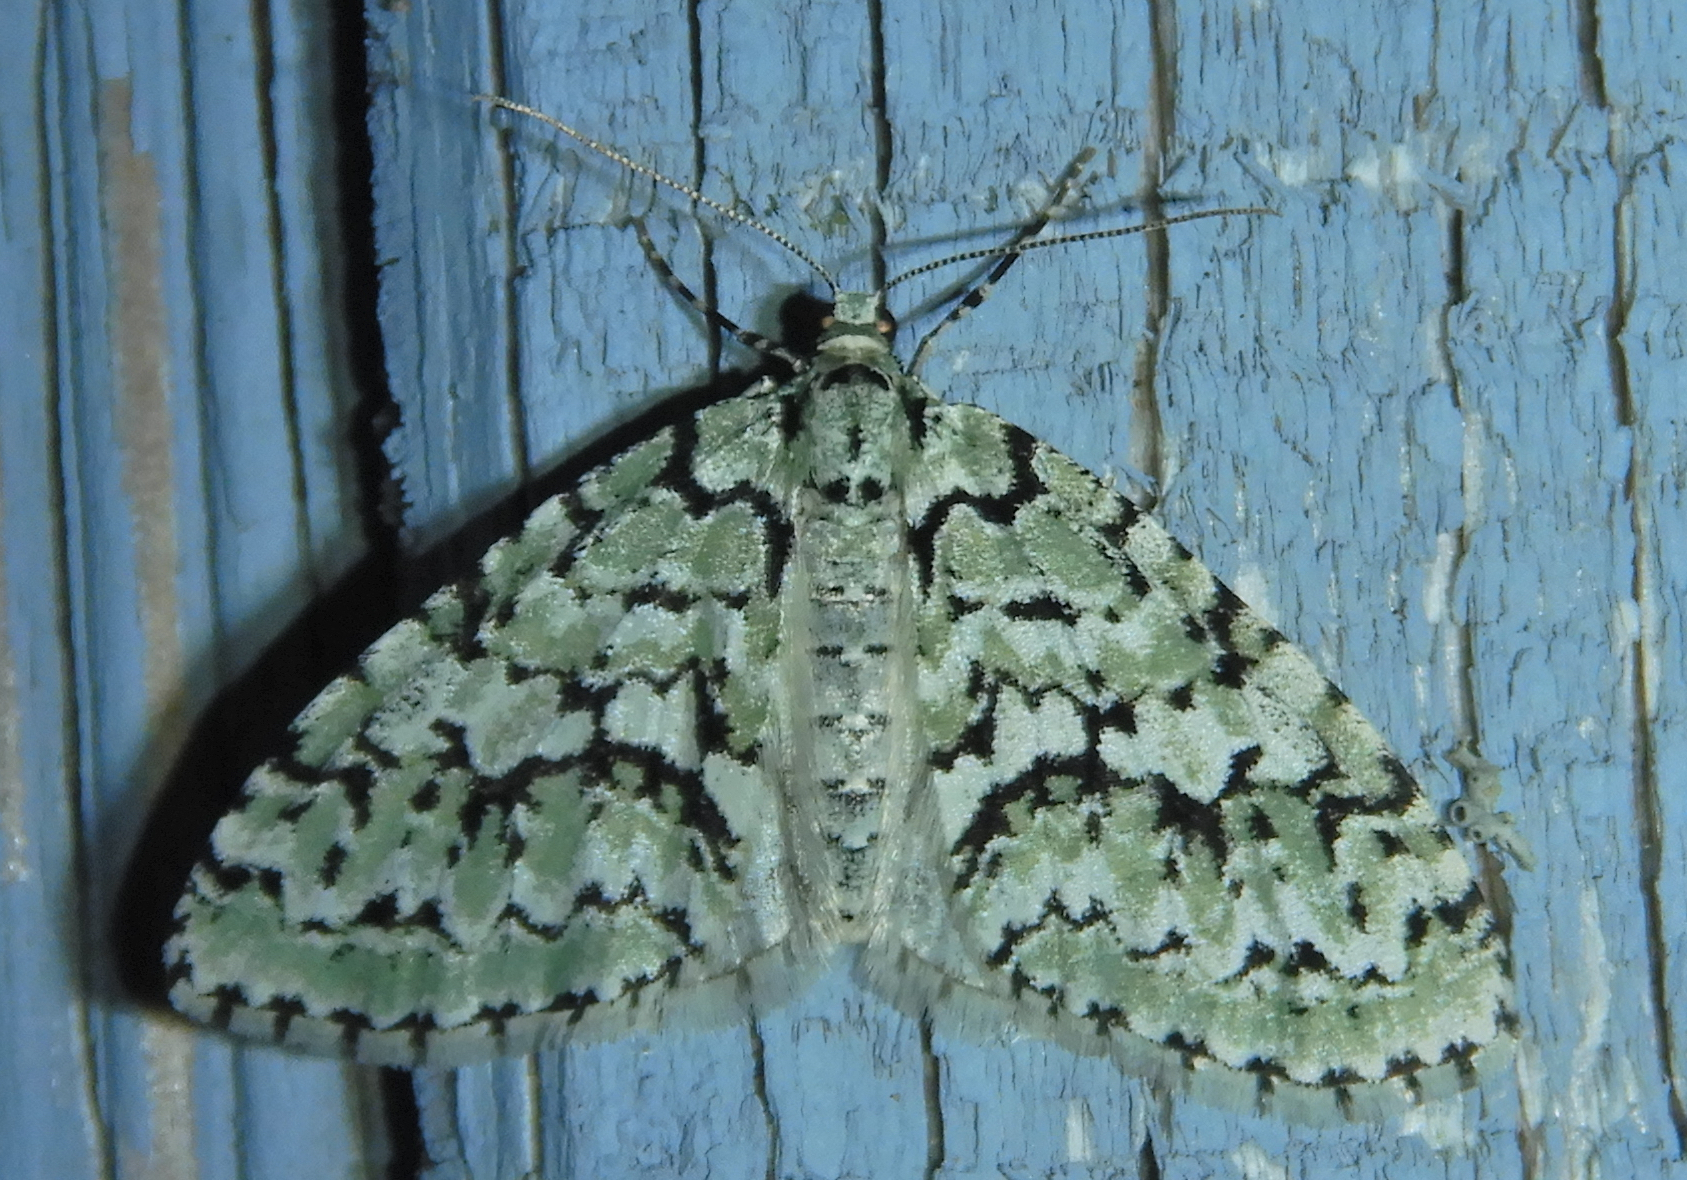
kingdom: Animalia
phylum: Arthropoda
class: Insecta
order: Lepidoptera
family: Geometridae
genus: Cladara
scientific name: Cladara atroliturata
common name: Scribbler
